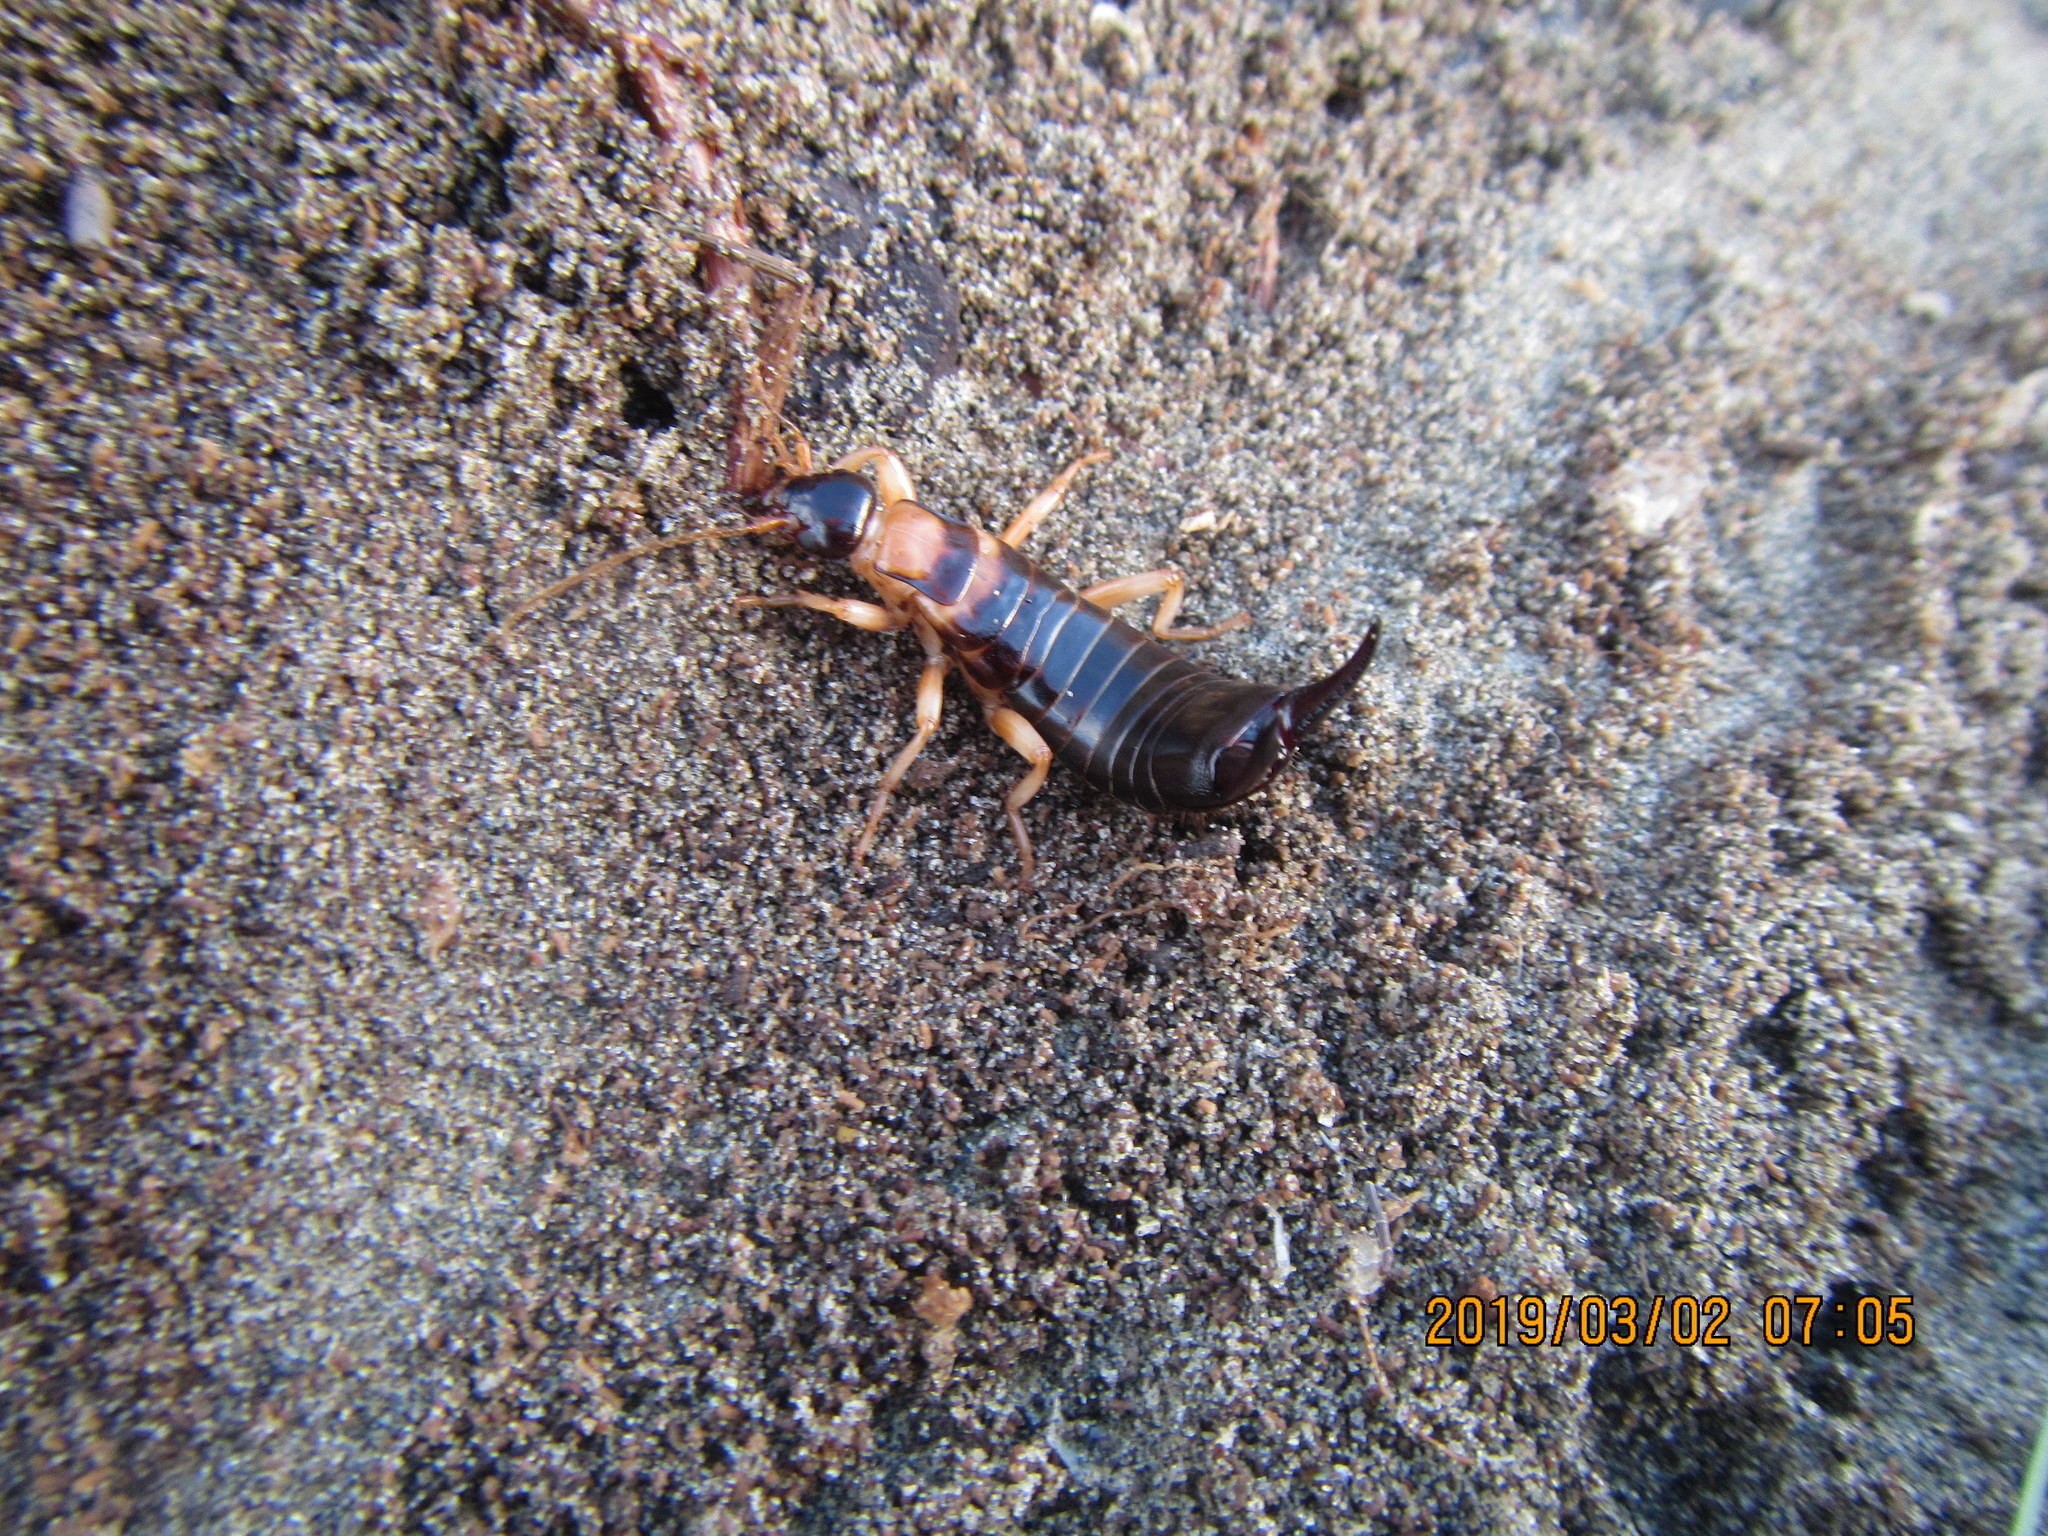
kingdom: Animalia
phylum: Arthropoda
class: Insecta
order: Dermaptera
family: Anisolabididae
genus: Anisolabis
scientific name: Anisolabis littorea
